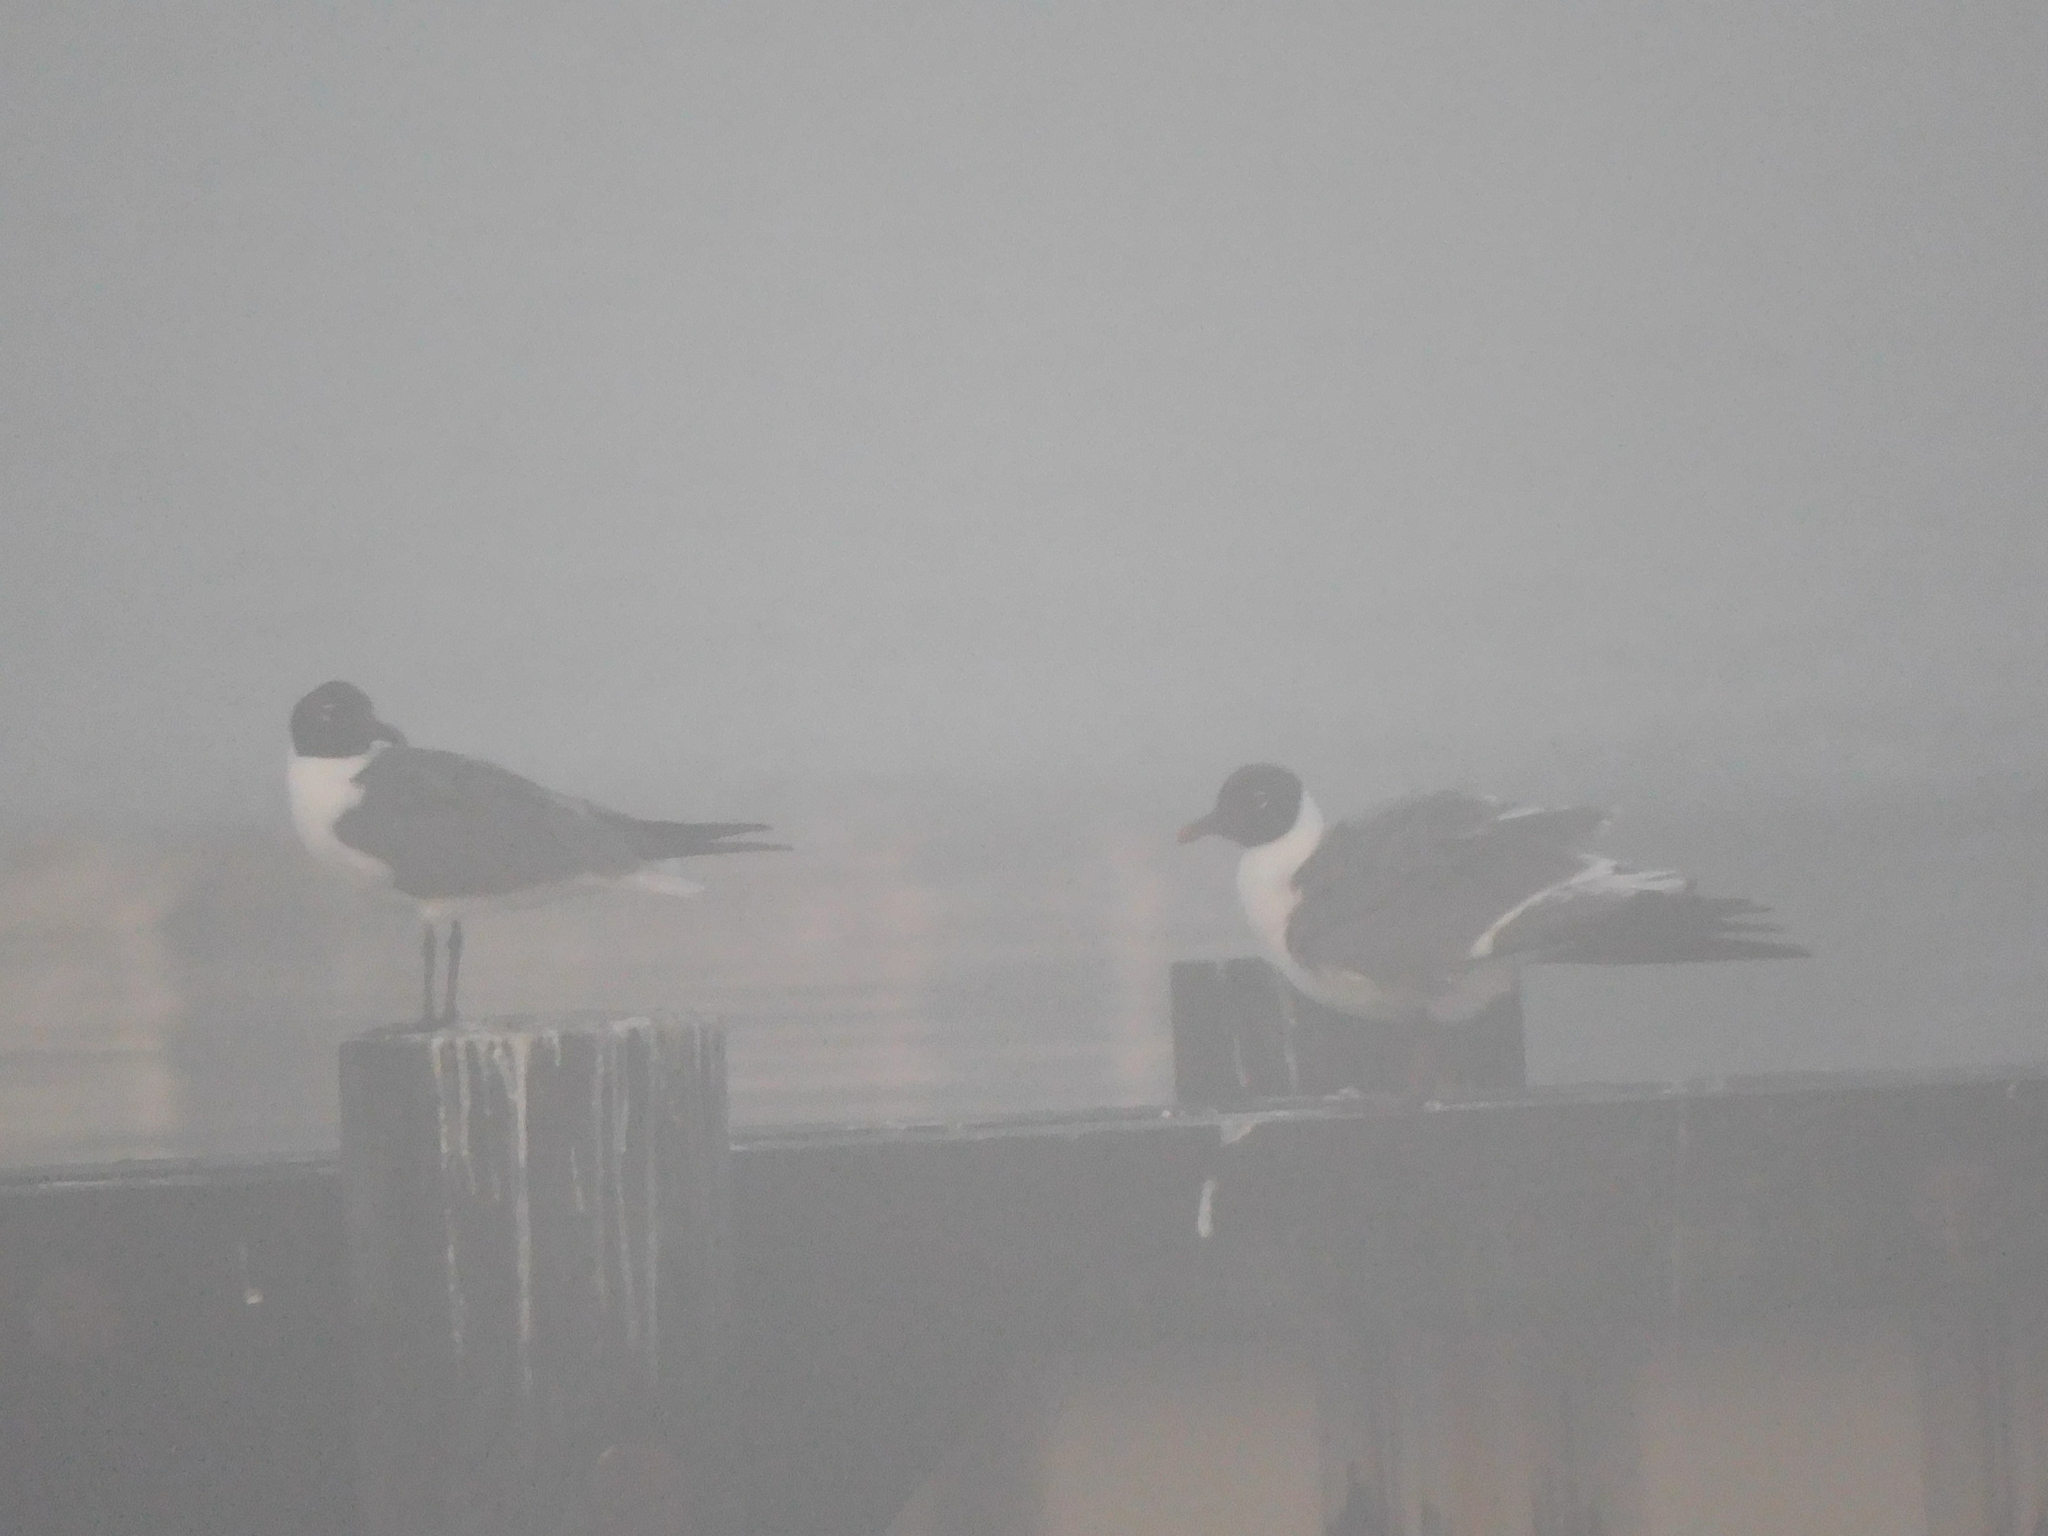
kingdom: Animalia
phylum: Chordata
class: Aves
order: Charadriiformes
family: Laridae
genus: Leucophaeus
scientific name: Leucophaeus atricilla
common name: Laughing gull
